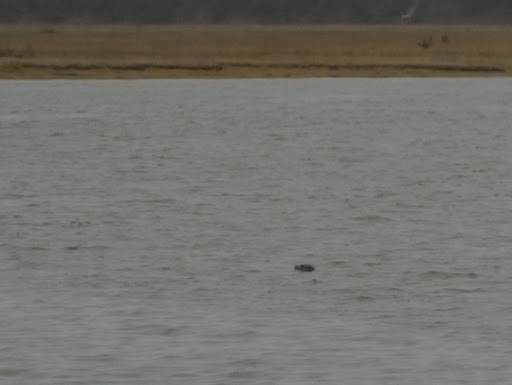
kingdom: Animalia
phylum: Chordata
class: Mammalia
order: Carnivora
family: Phocidae
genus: Phoca
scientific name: Phoca vitulina
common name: Harbor seal
